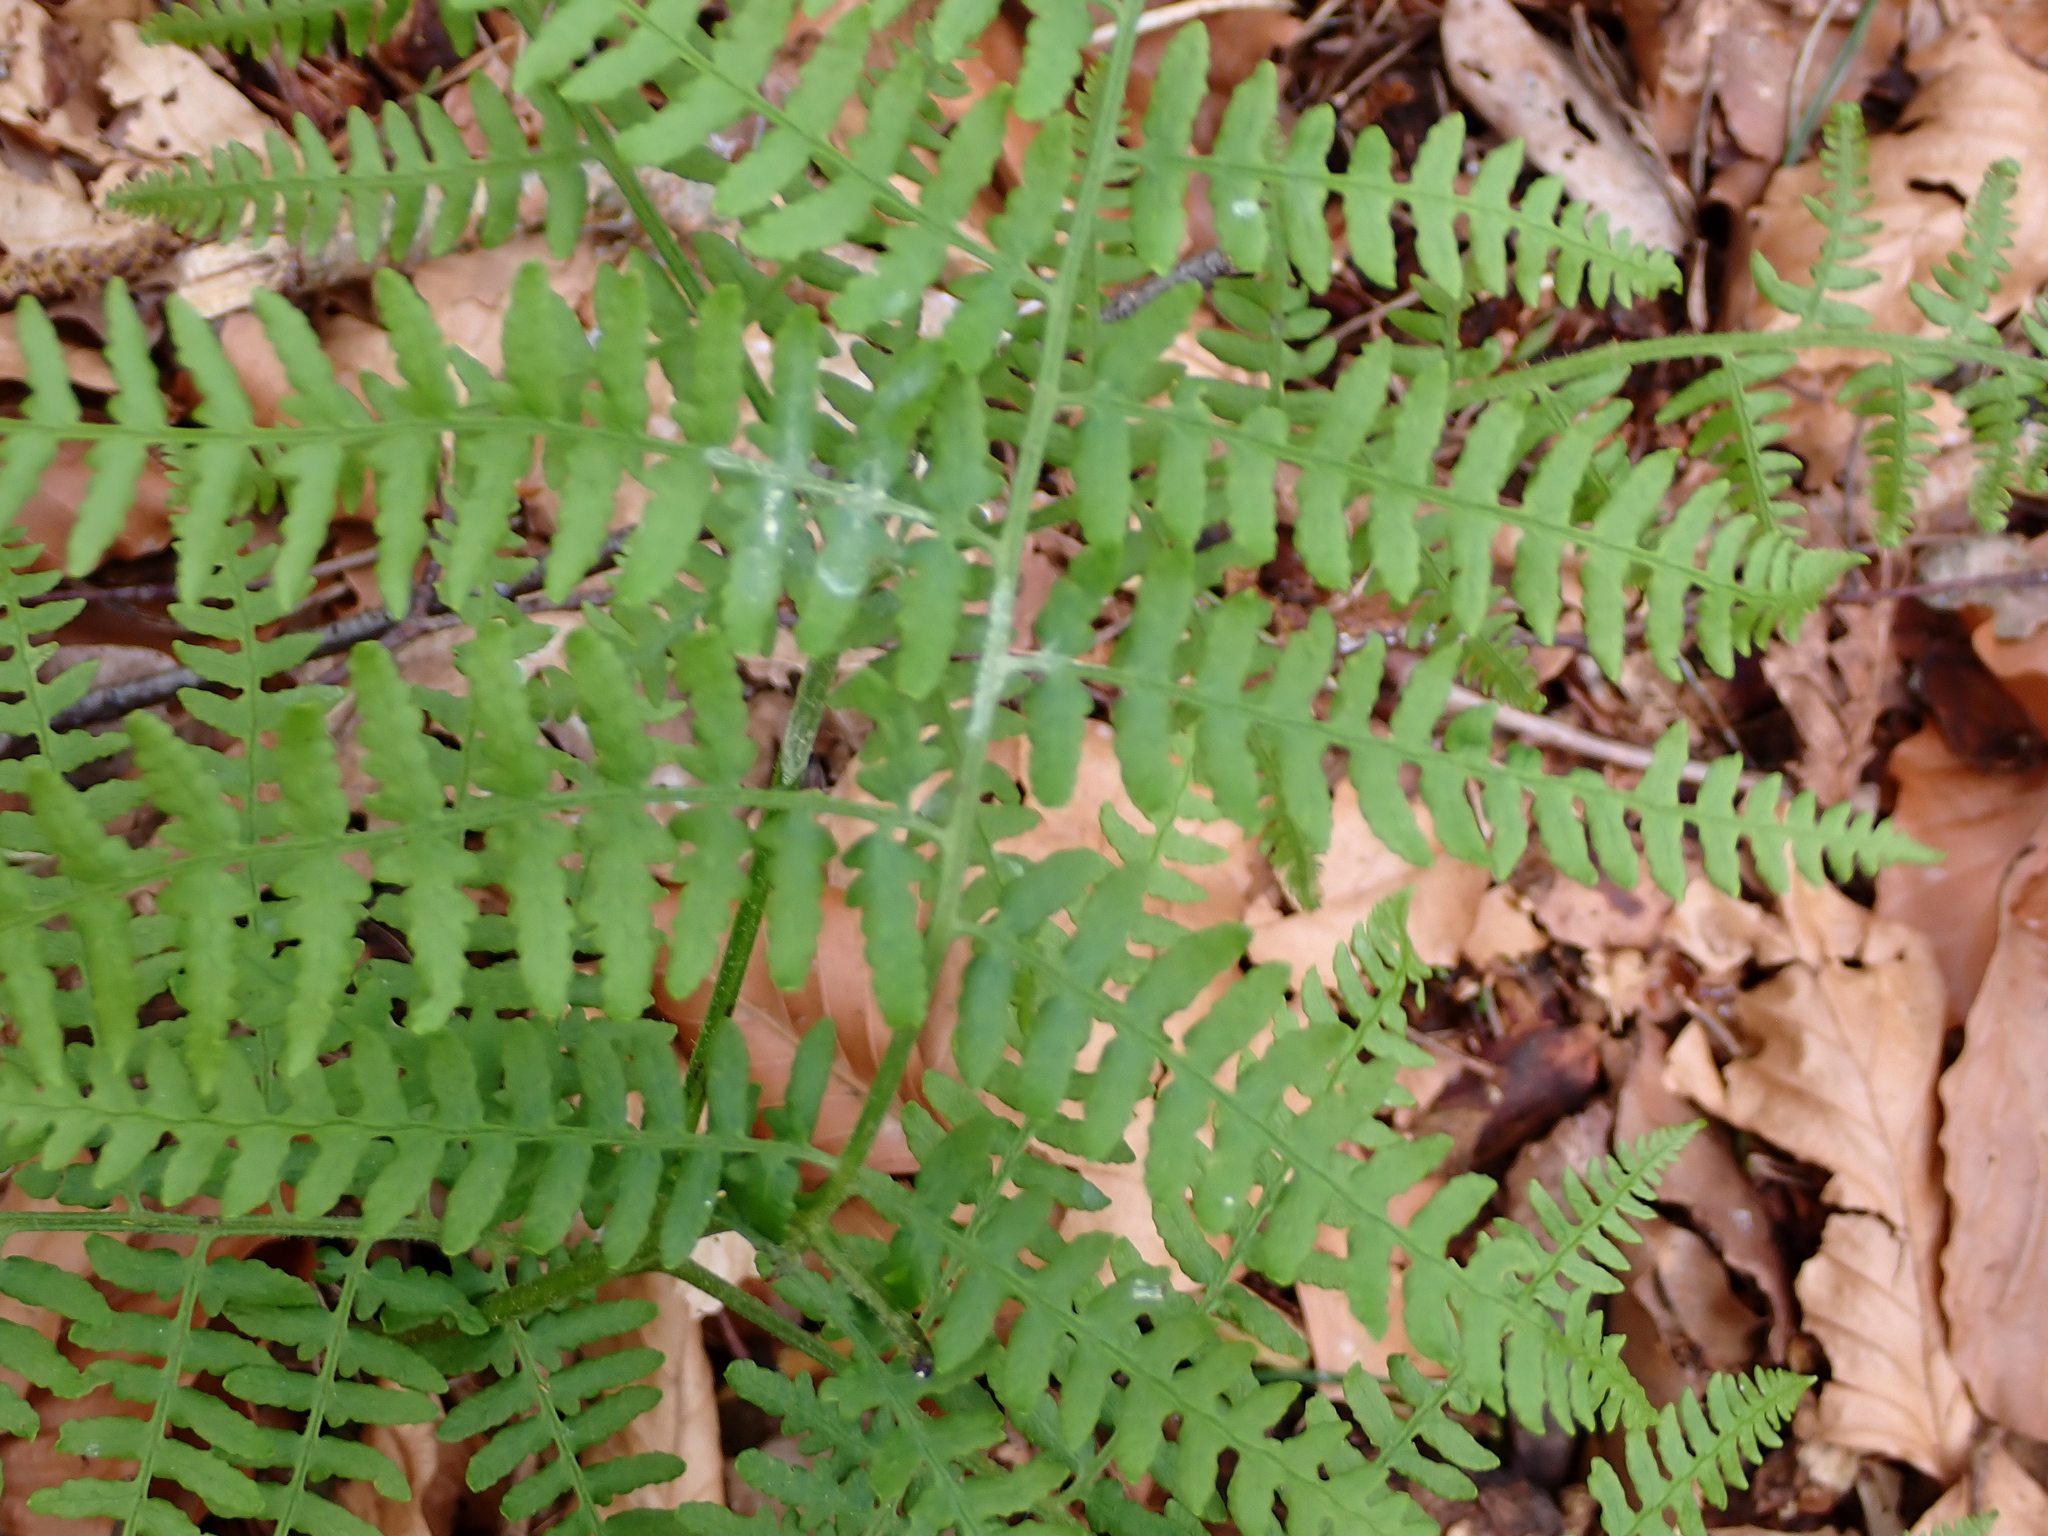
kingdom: Plantae
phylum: Tracheophyta
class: Polypodiopsida
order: Polypodiales
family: Dennstaedtiaceae
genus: Pteridium
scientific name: Pteridium aquilinum
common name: Bracken
